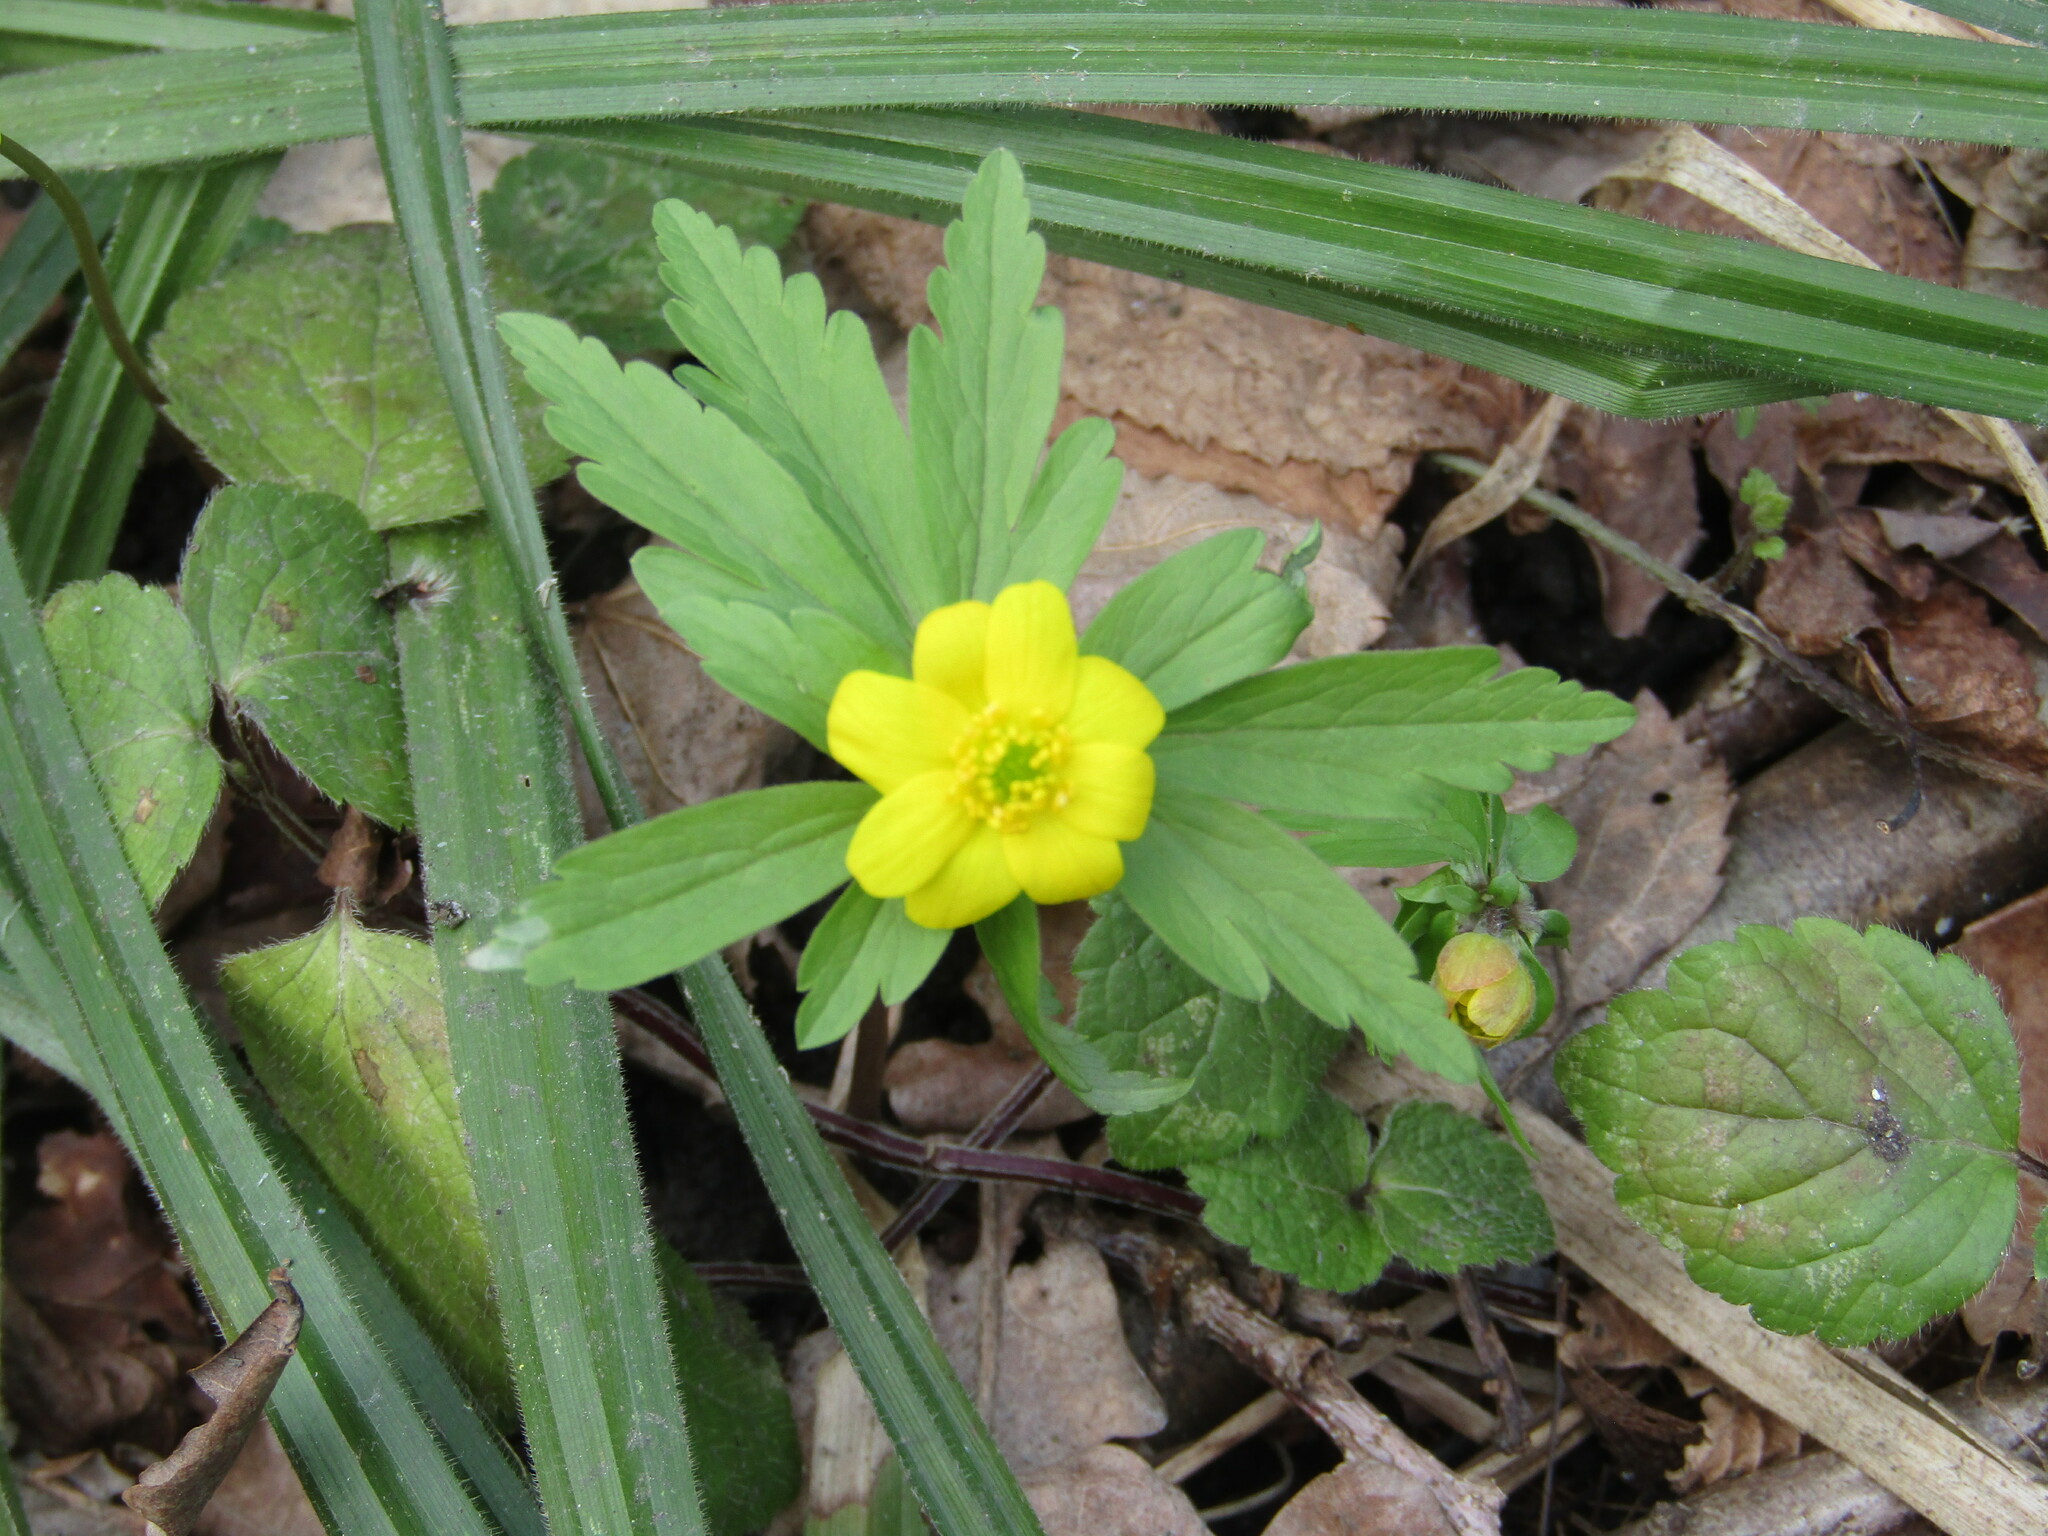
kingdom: Plantae
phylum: Tracheophyta
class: Magnoliopsida
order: Ranunculales
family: Ranunculaceae
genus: Anemone
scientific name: Anemone ranunculoides
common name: Yellow anemone
